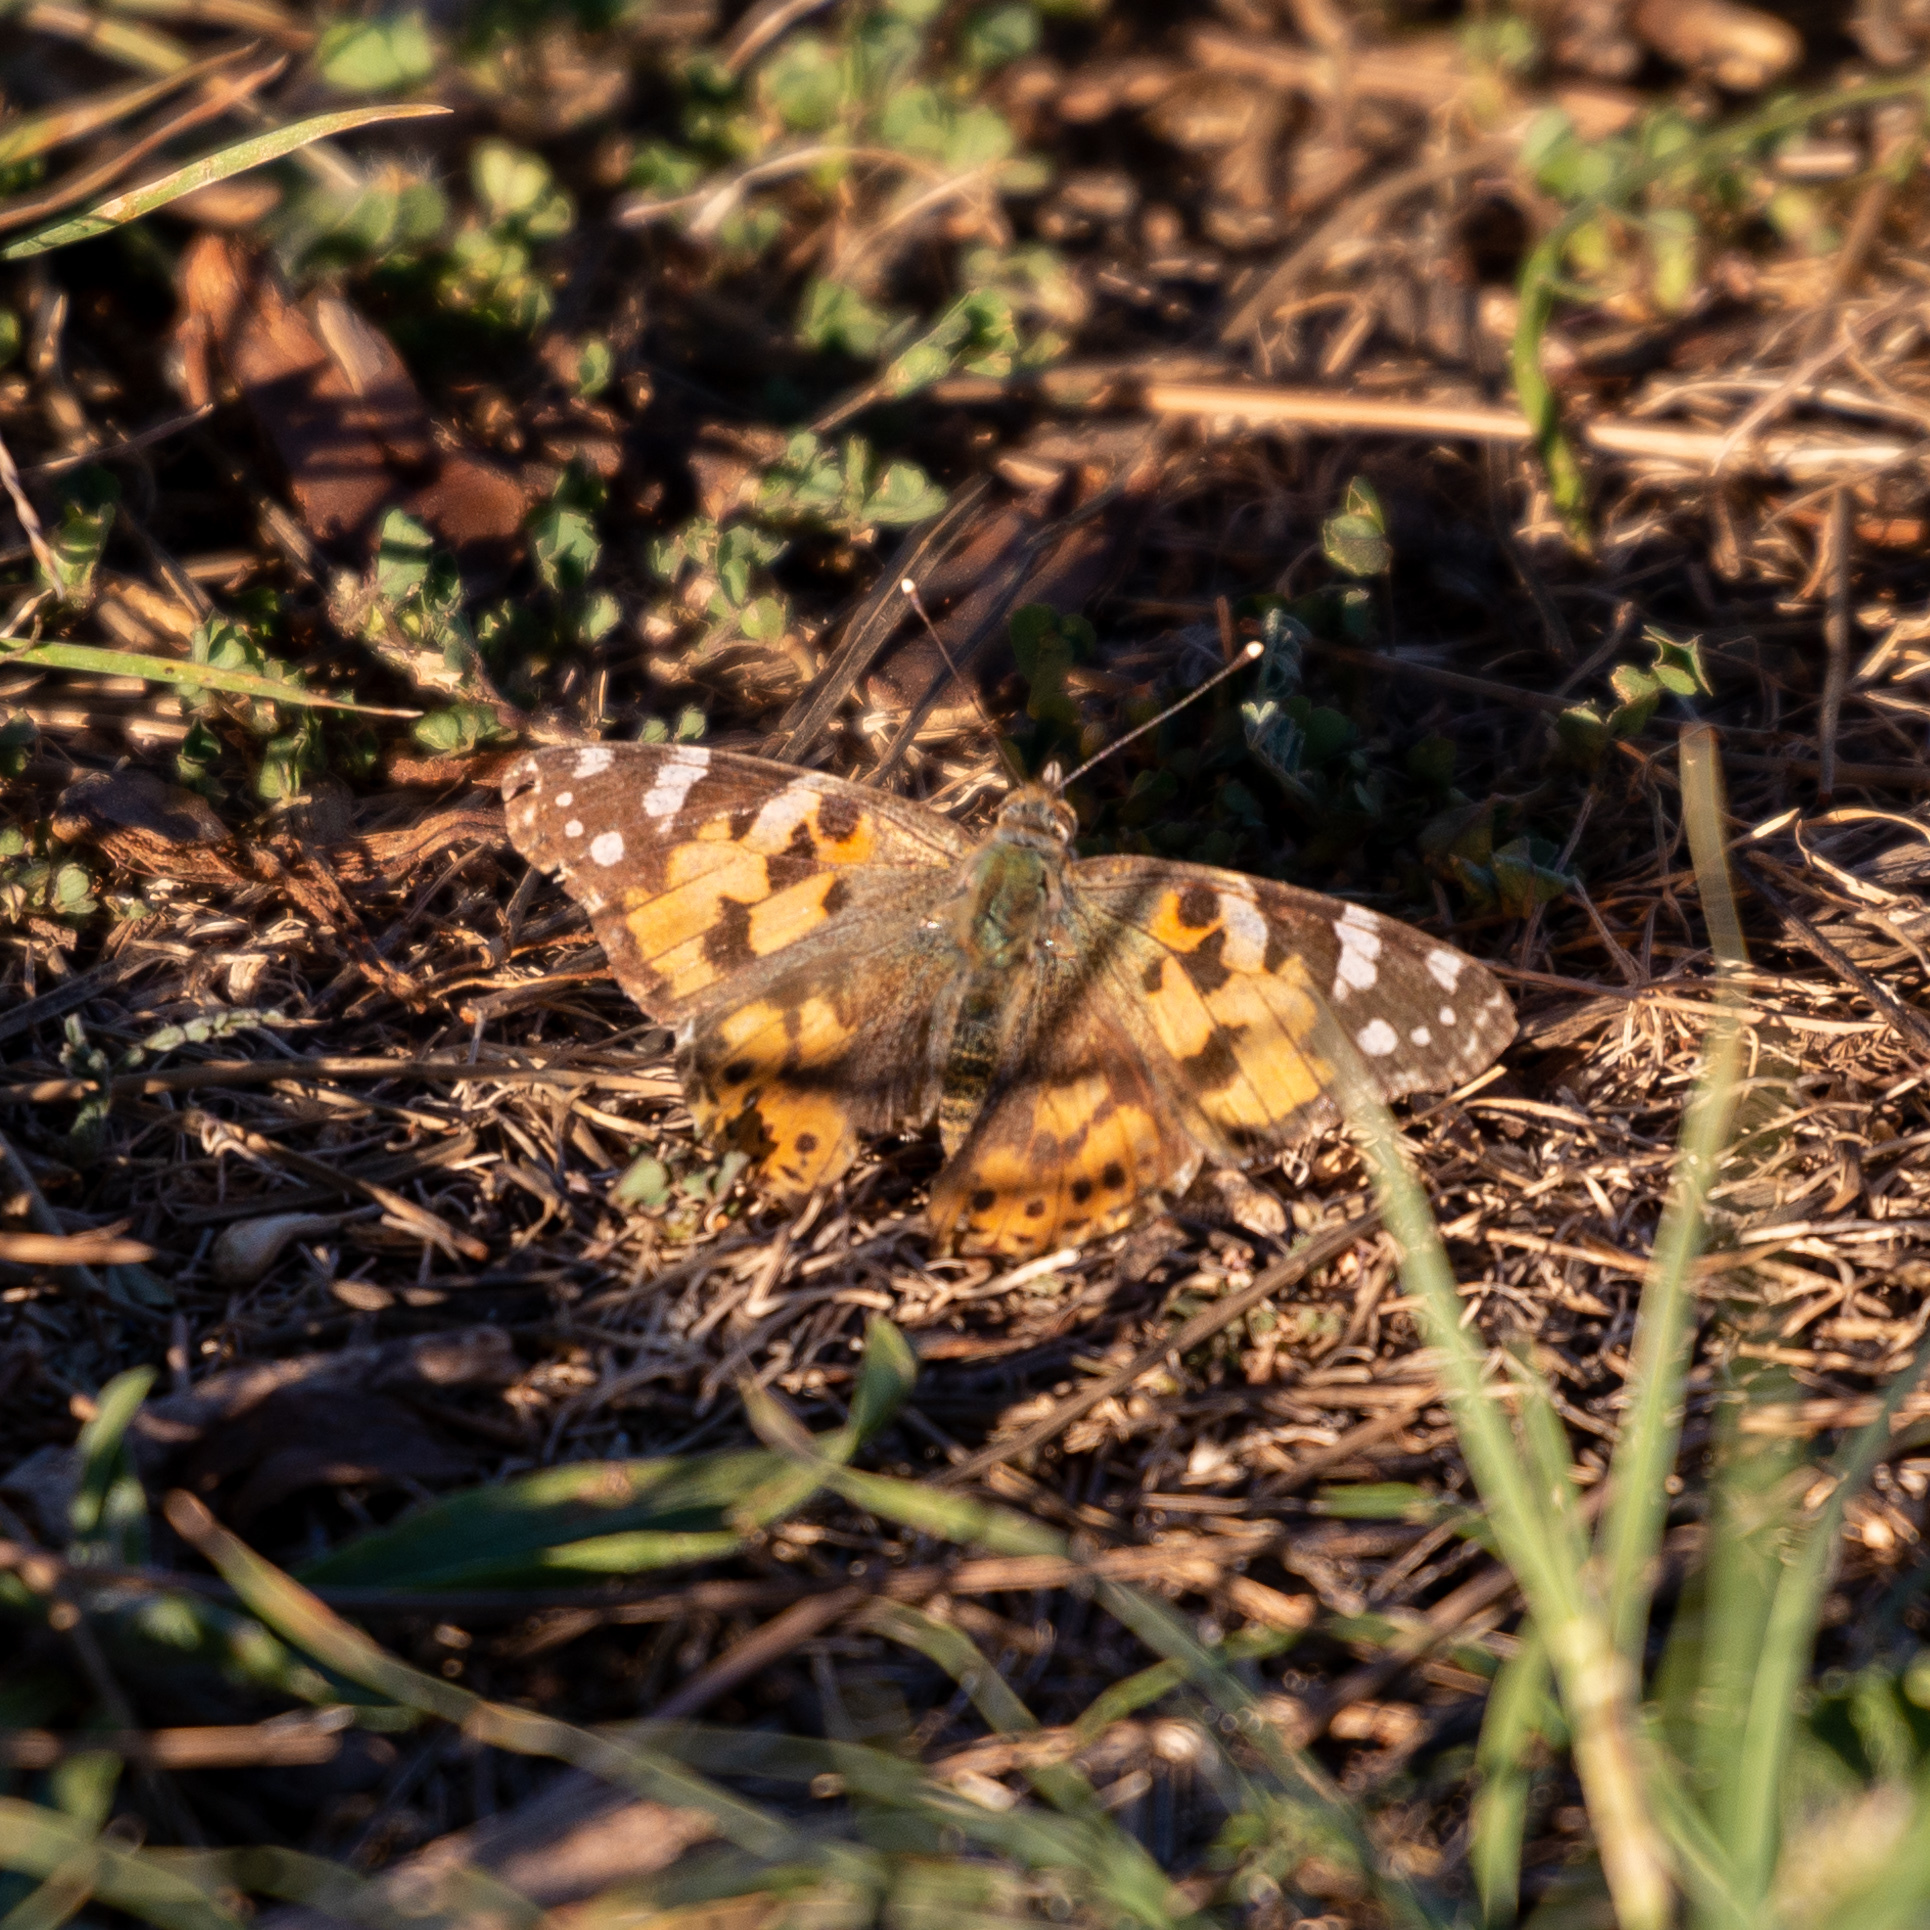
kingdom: Animalia
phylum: Arthropoda
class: Insecta
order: Lepidoptera
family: Nymphalidae
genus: Vanessa
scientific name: Vanessa cardui
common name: Painted lady
